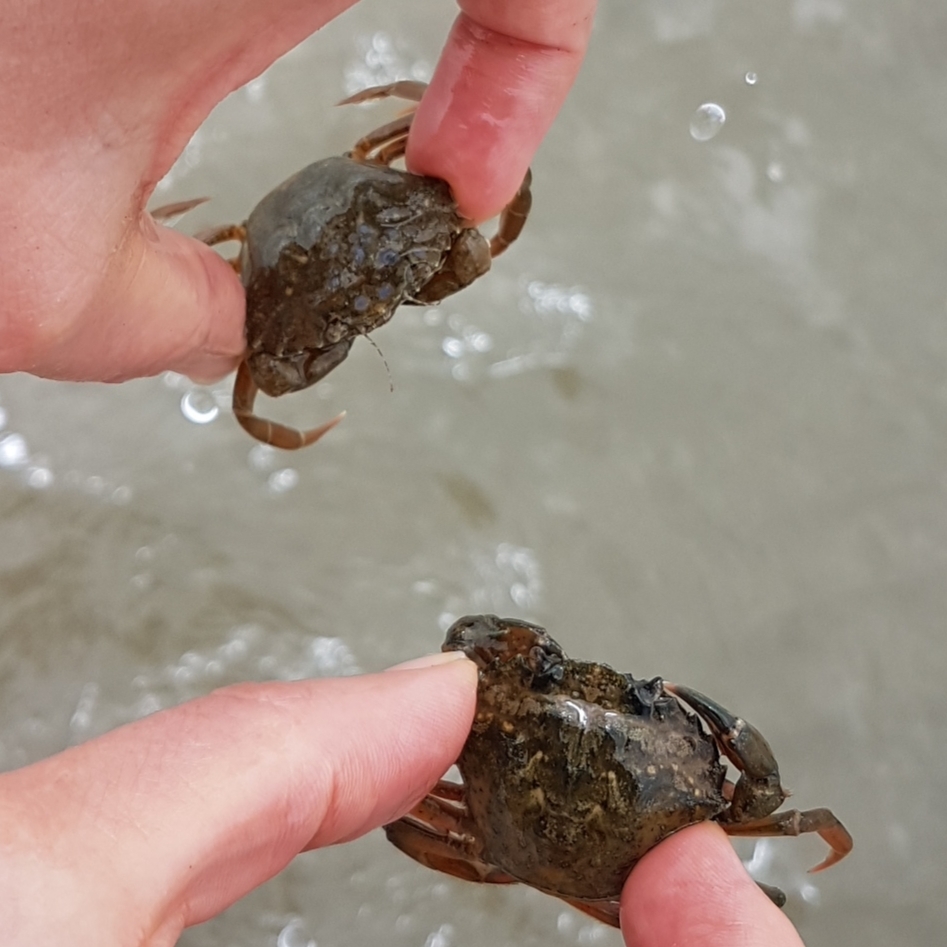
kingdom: Animalia
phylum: Arthropoda
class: Malacostraca
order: Decapoda
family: Carcinidae
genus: Carcinus
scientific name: Carcinus aestuarii
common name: Mediterranean green crab
